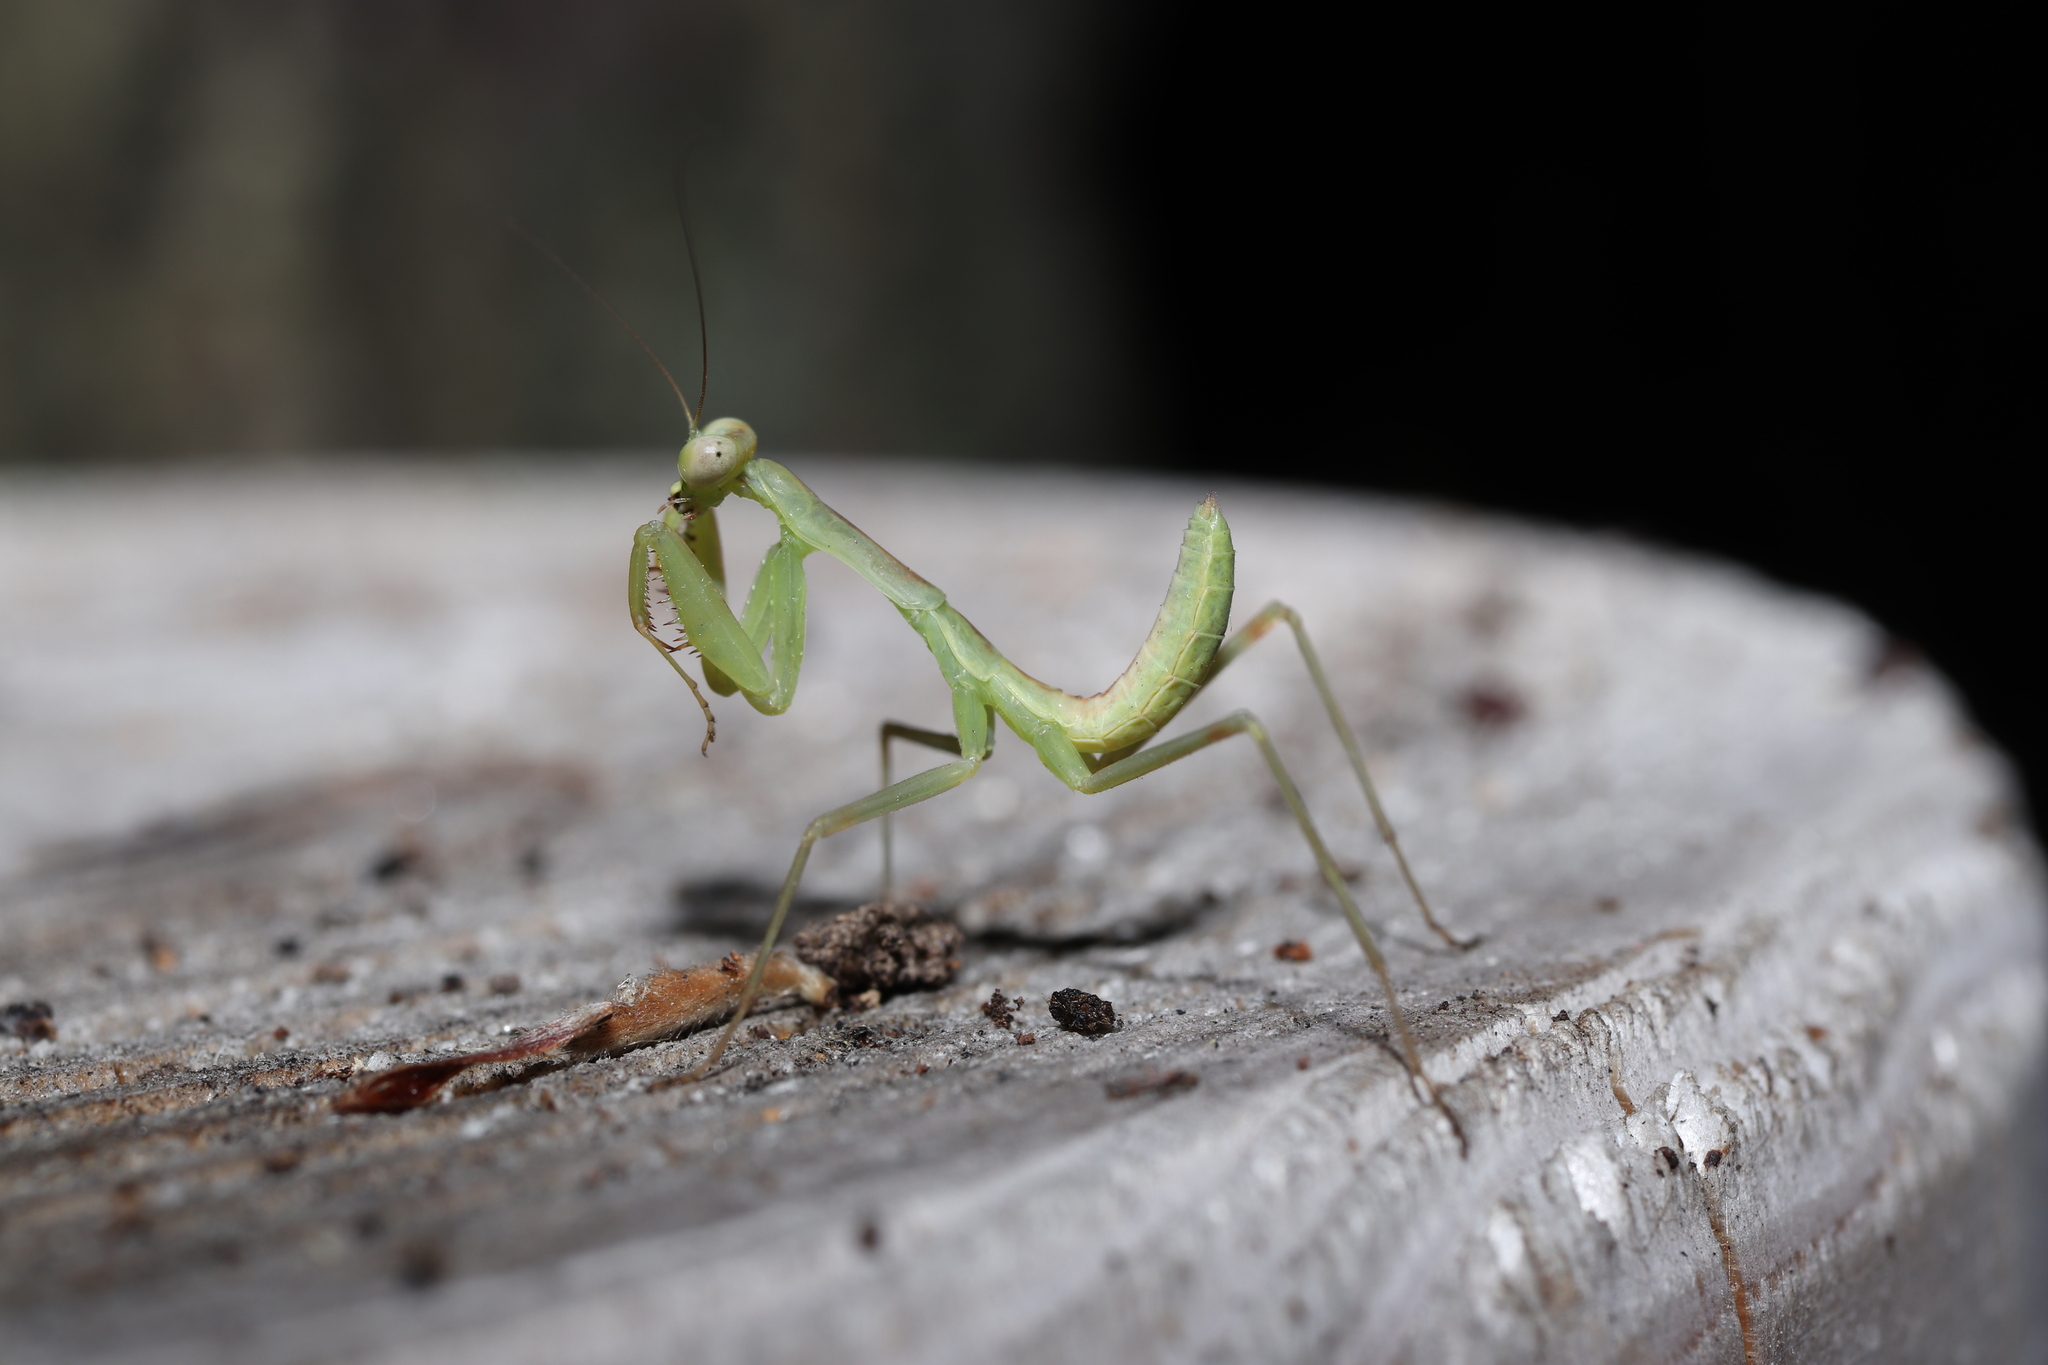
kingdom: Animalia
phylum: Arthropoda
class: Insecta
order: Mantodea
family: Mantidae
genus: Hierodula
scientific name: Hierodula patellifera
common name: Asian mantis
